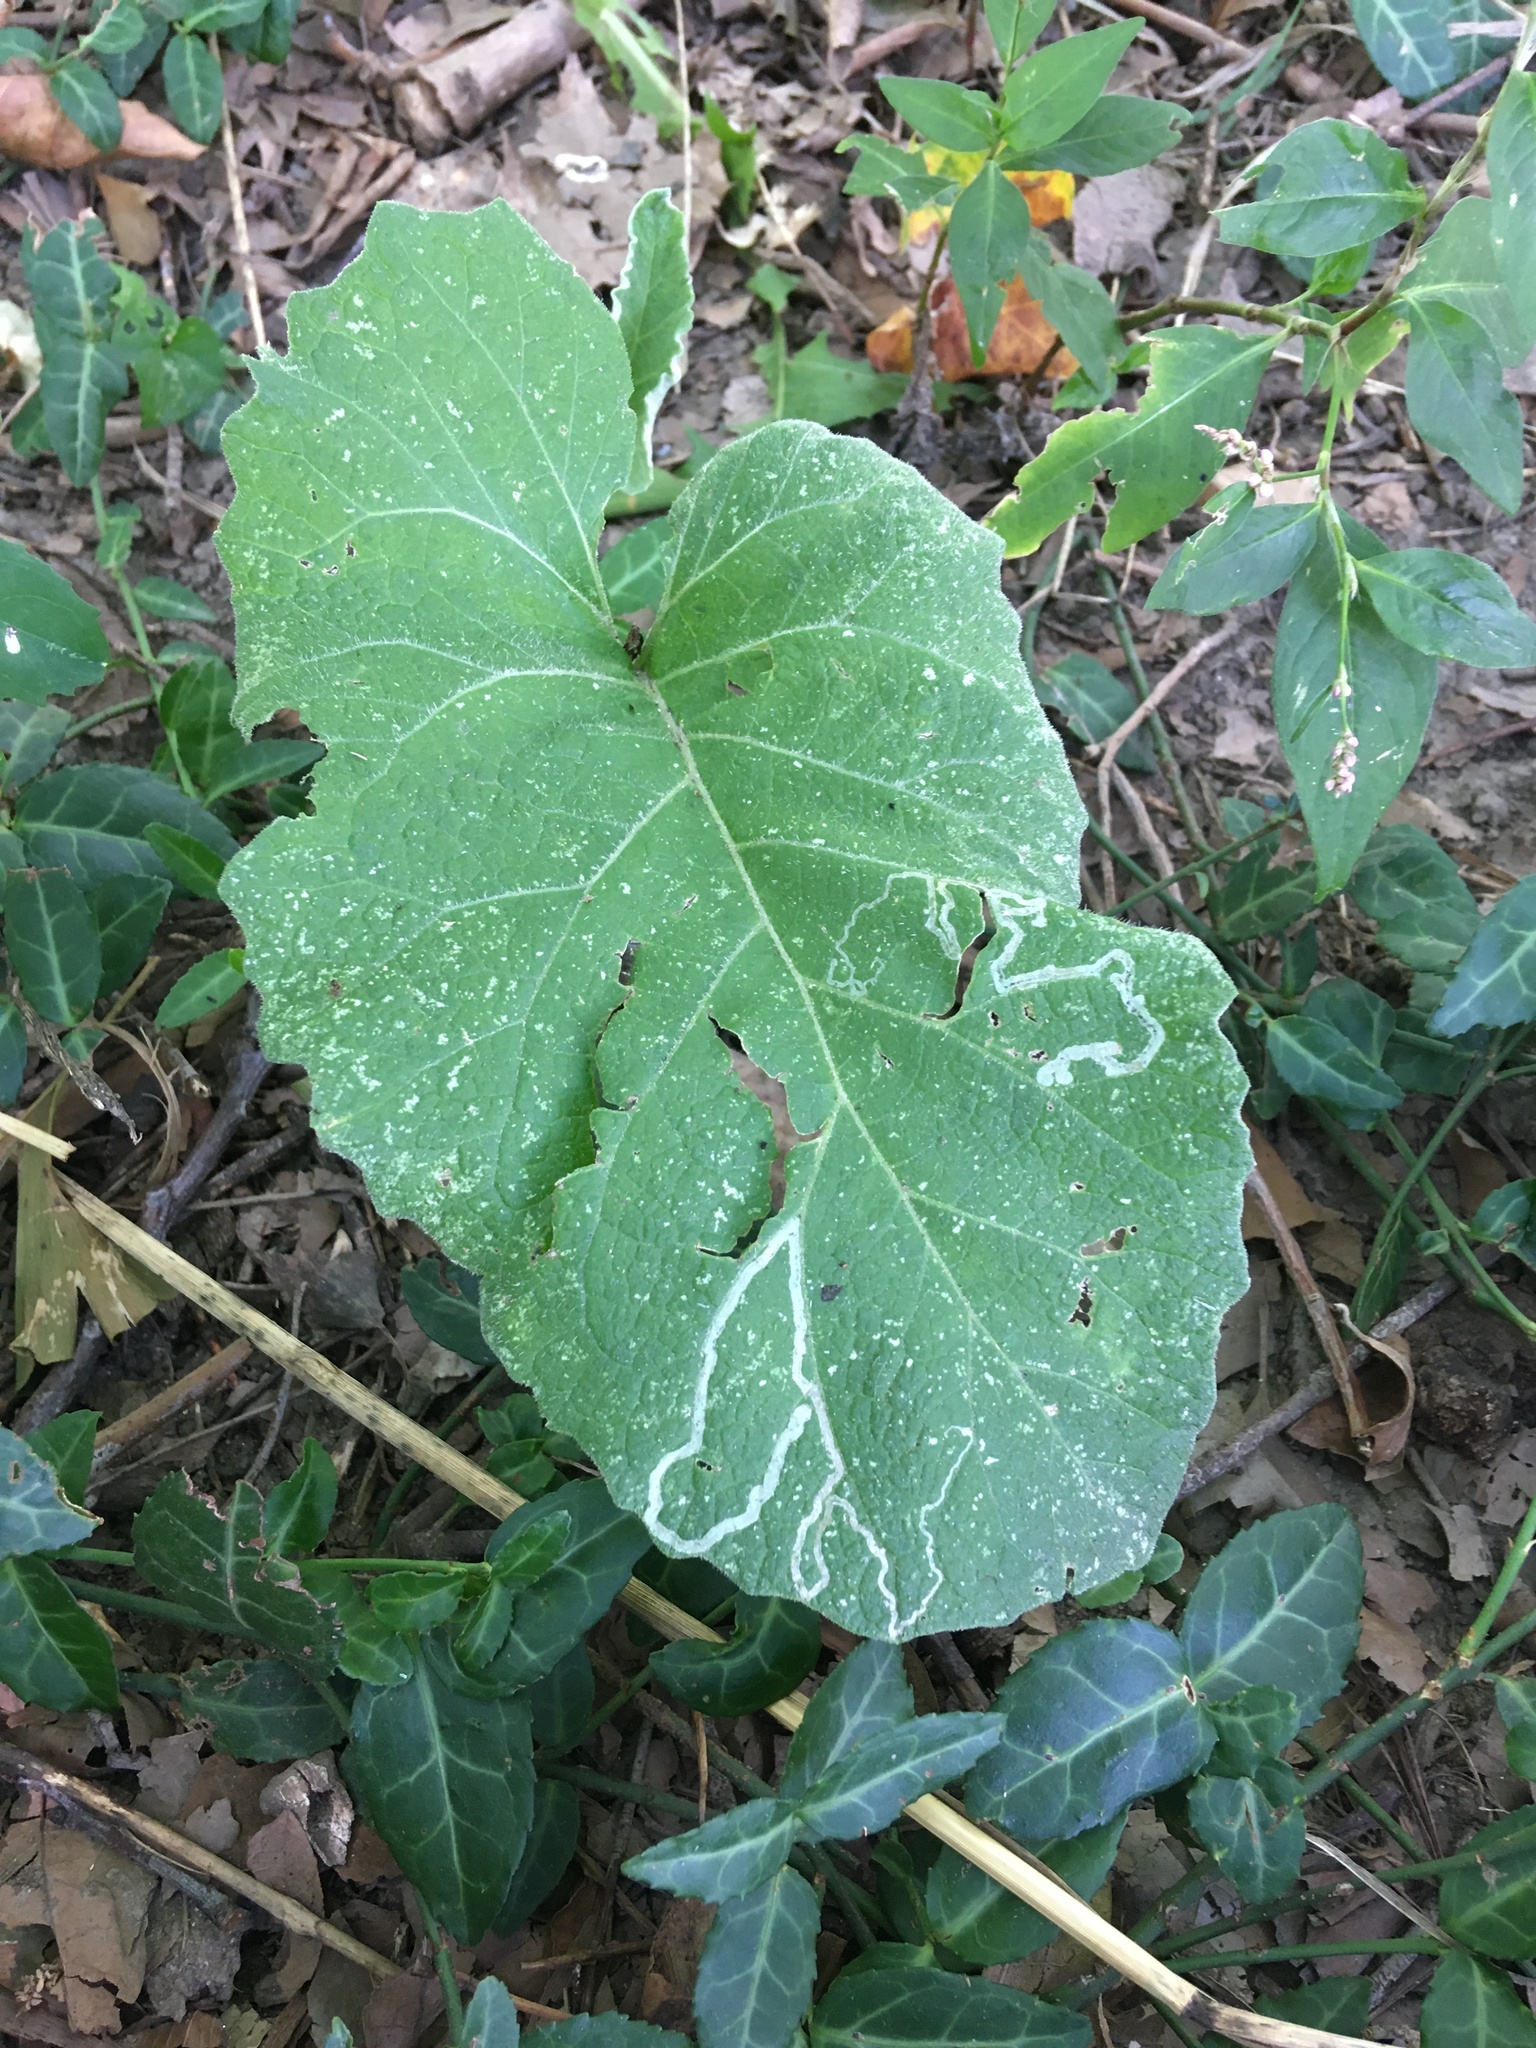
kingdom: Plantae
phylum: Tracheophyta
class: Magnoliopsida
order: Asterales
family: Asteraceae
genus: Arctium
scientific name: Arctium
